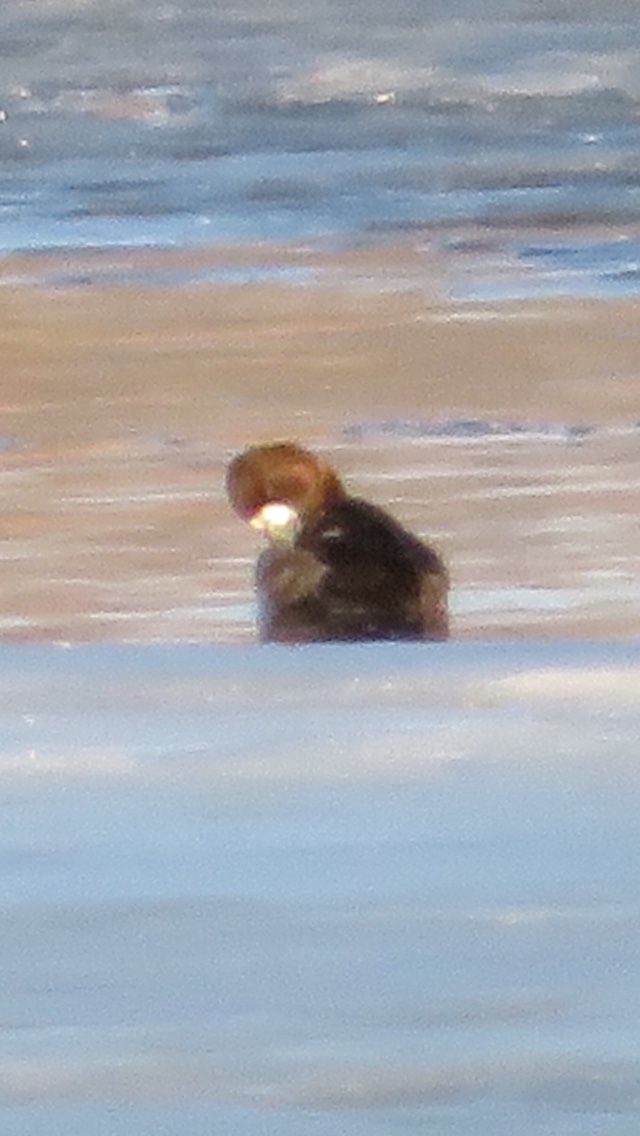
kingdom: Animalia
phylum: Chordata
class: Aves
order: Anseriformes
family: Anatidae
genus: Aythya
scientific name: Aythya affinis
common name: Lesser scaup
